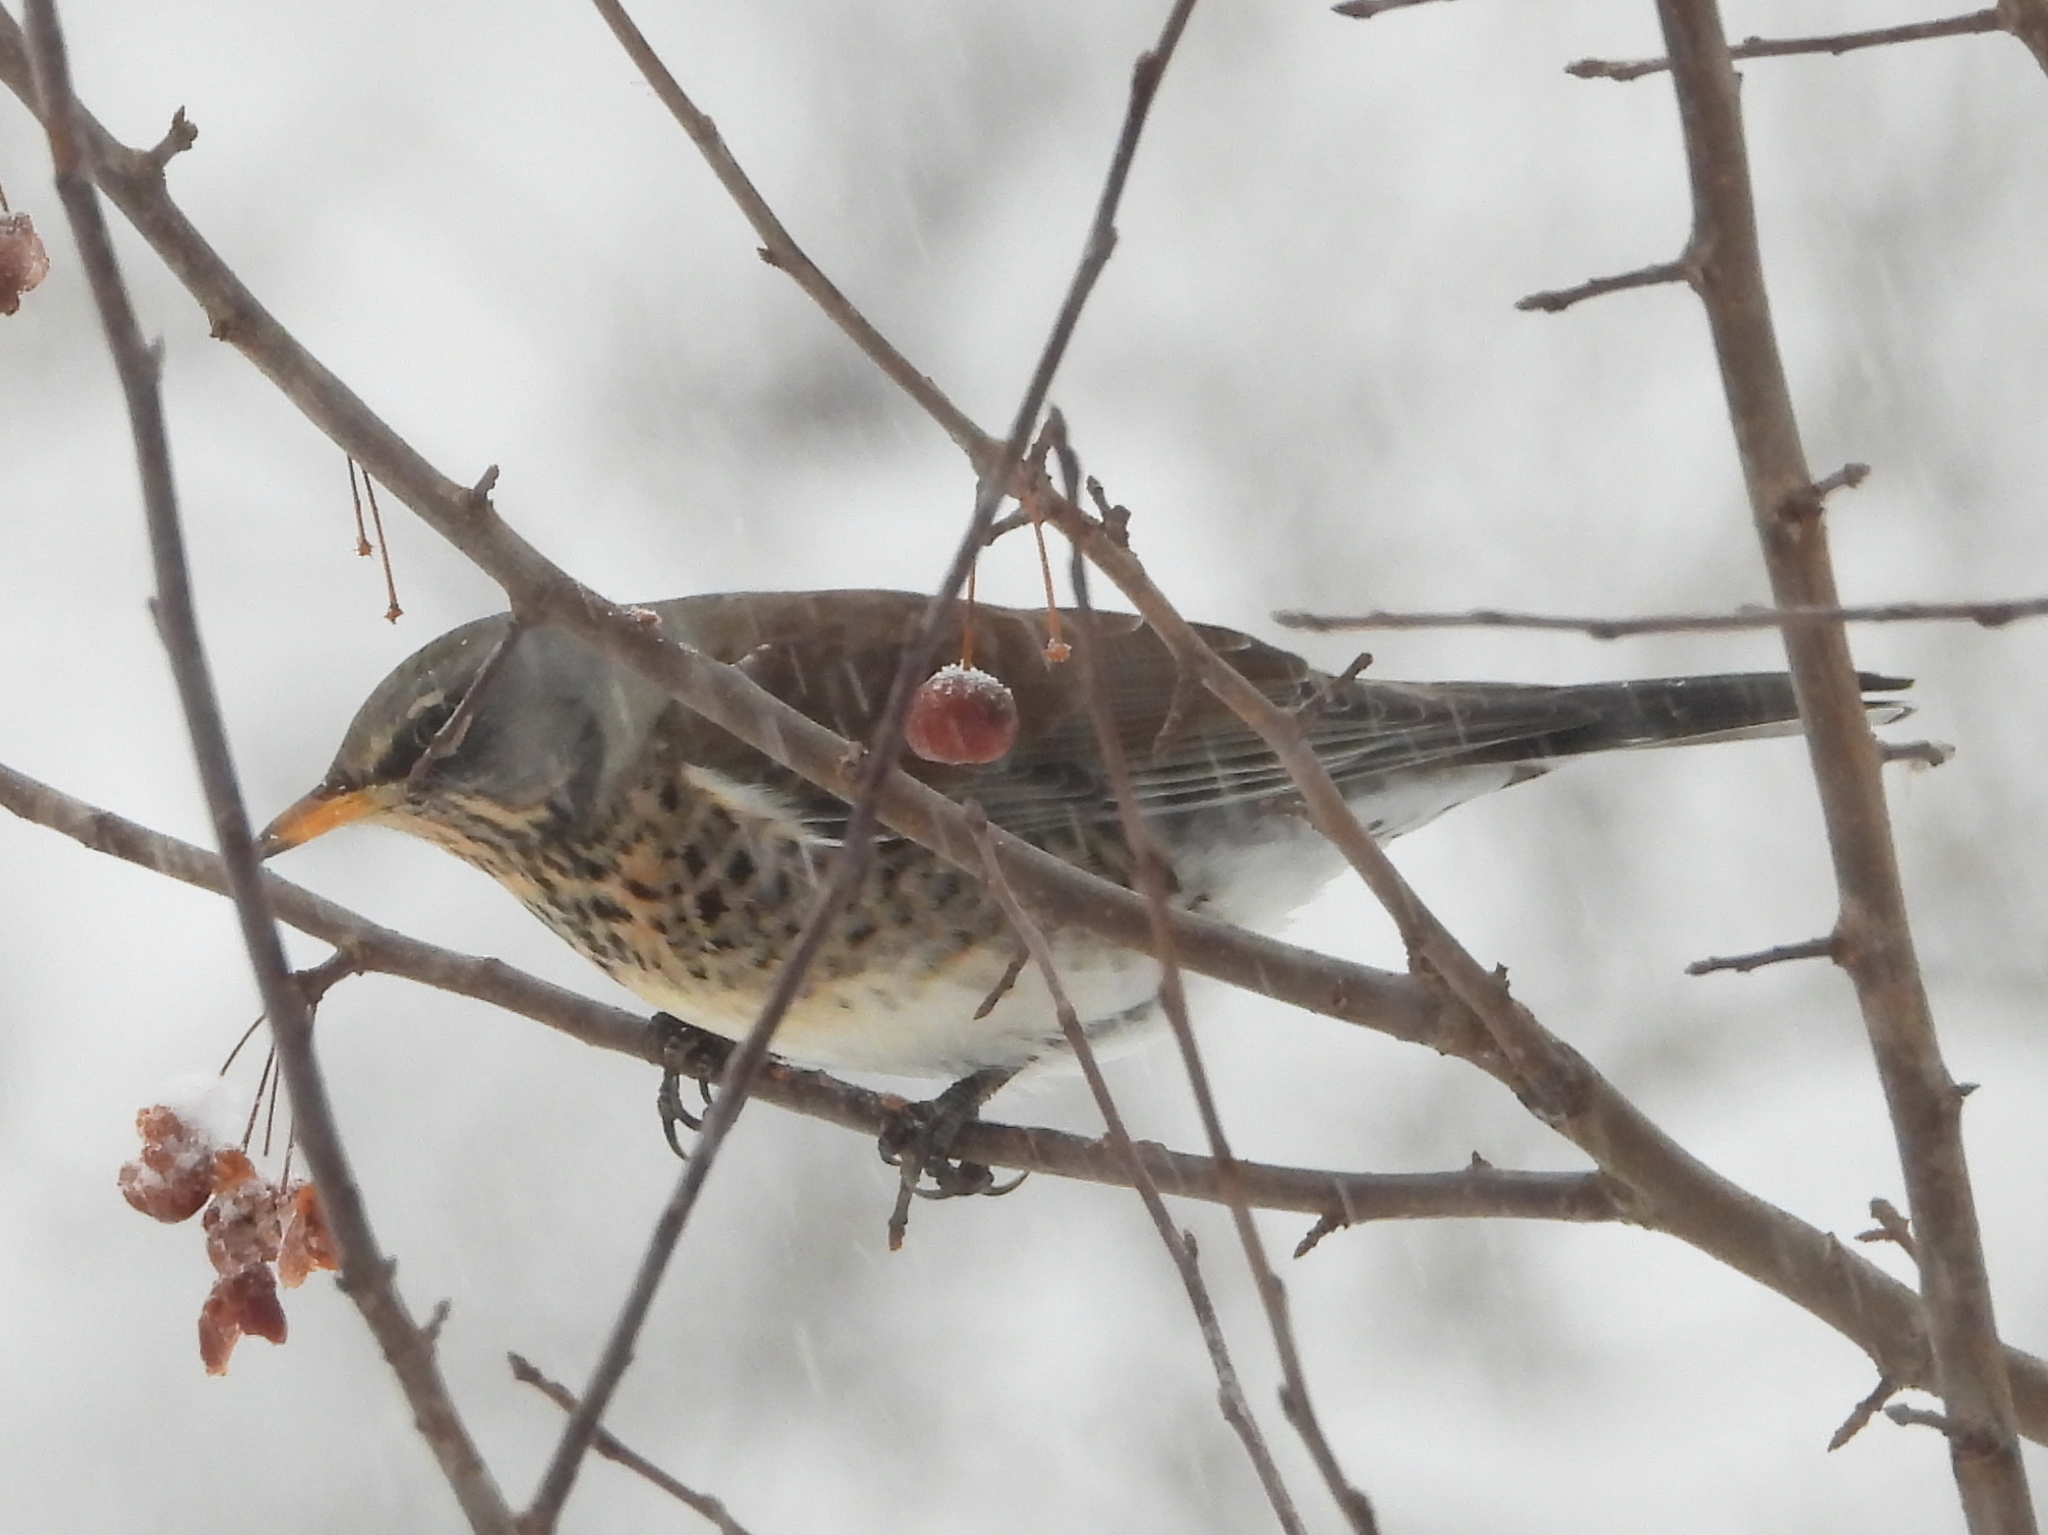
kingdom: Animalia
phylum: Chordata
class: Aves
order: Passeriformes
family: Turdidae
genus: Turdus
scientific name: Turdus pilaris
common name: Fieldfare
